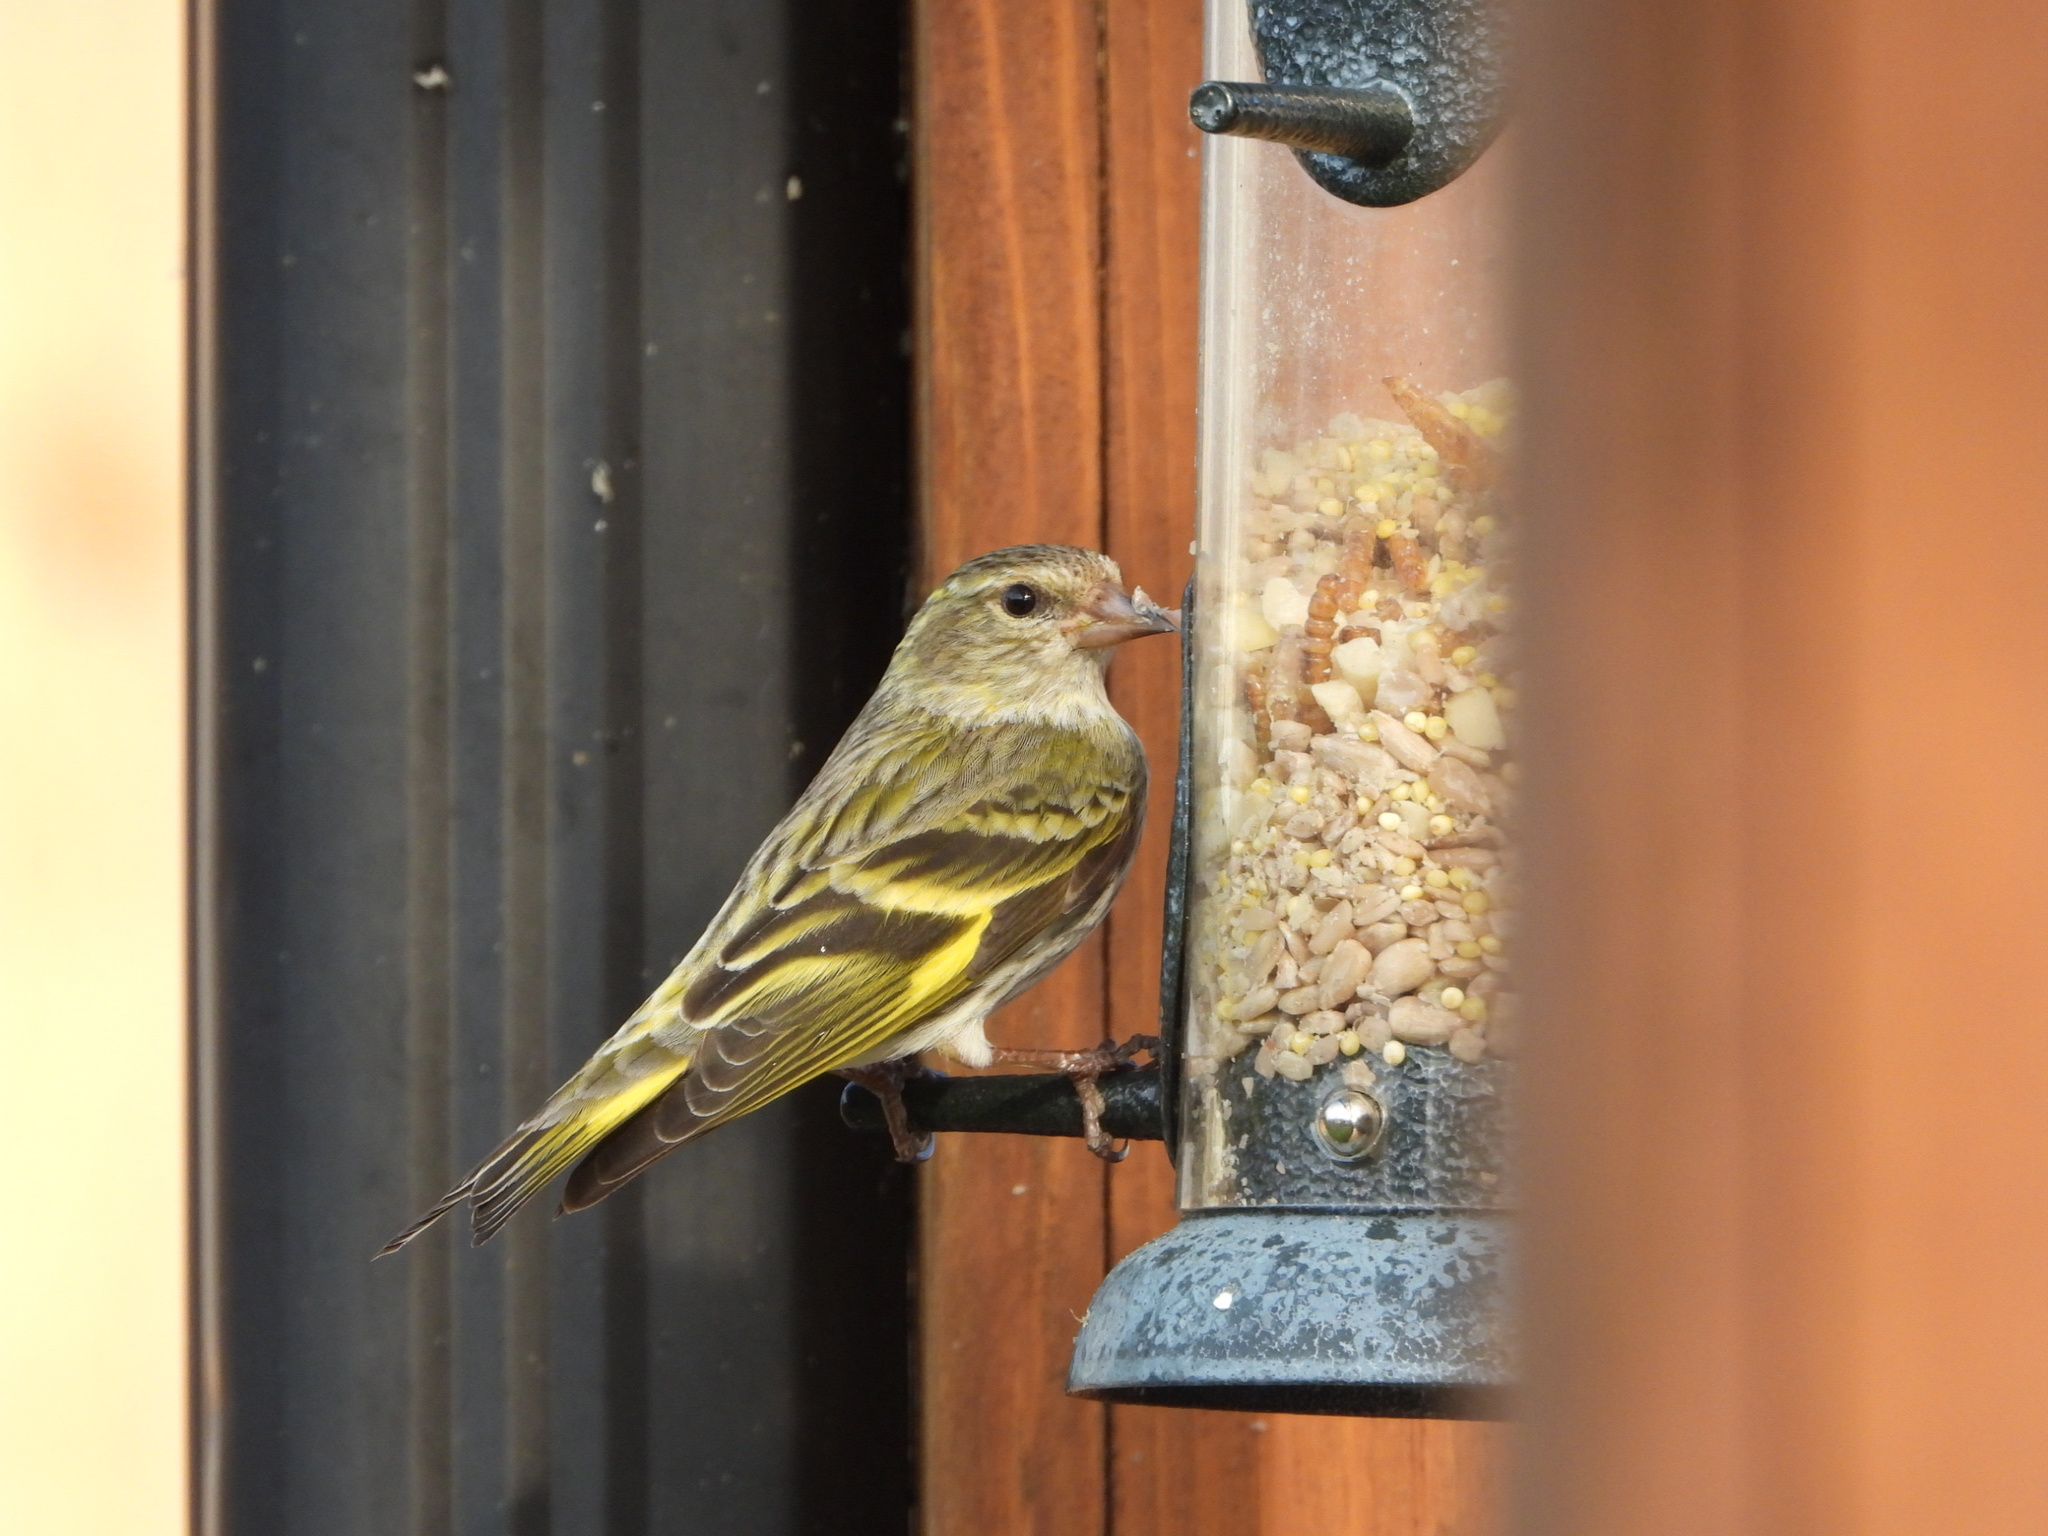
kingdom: Animalia
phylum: Chordata
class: Aves
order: Passeriformes
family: Fringillidae
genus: Spinus
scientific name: Spinus pinus
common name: Pine siskin
